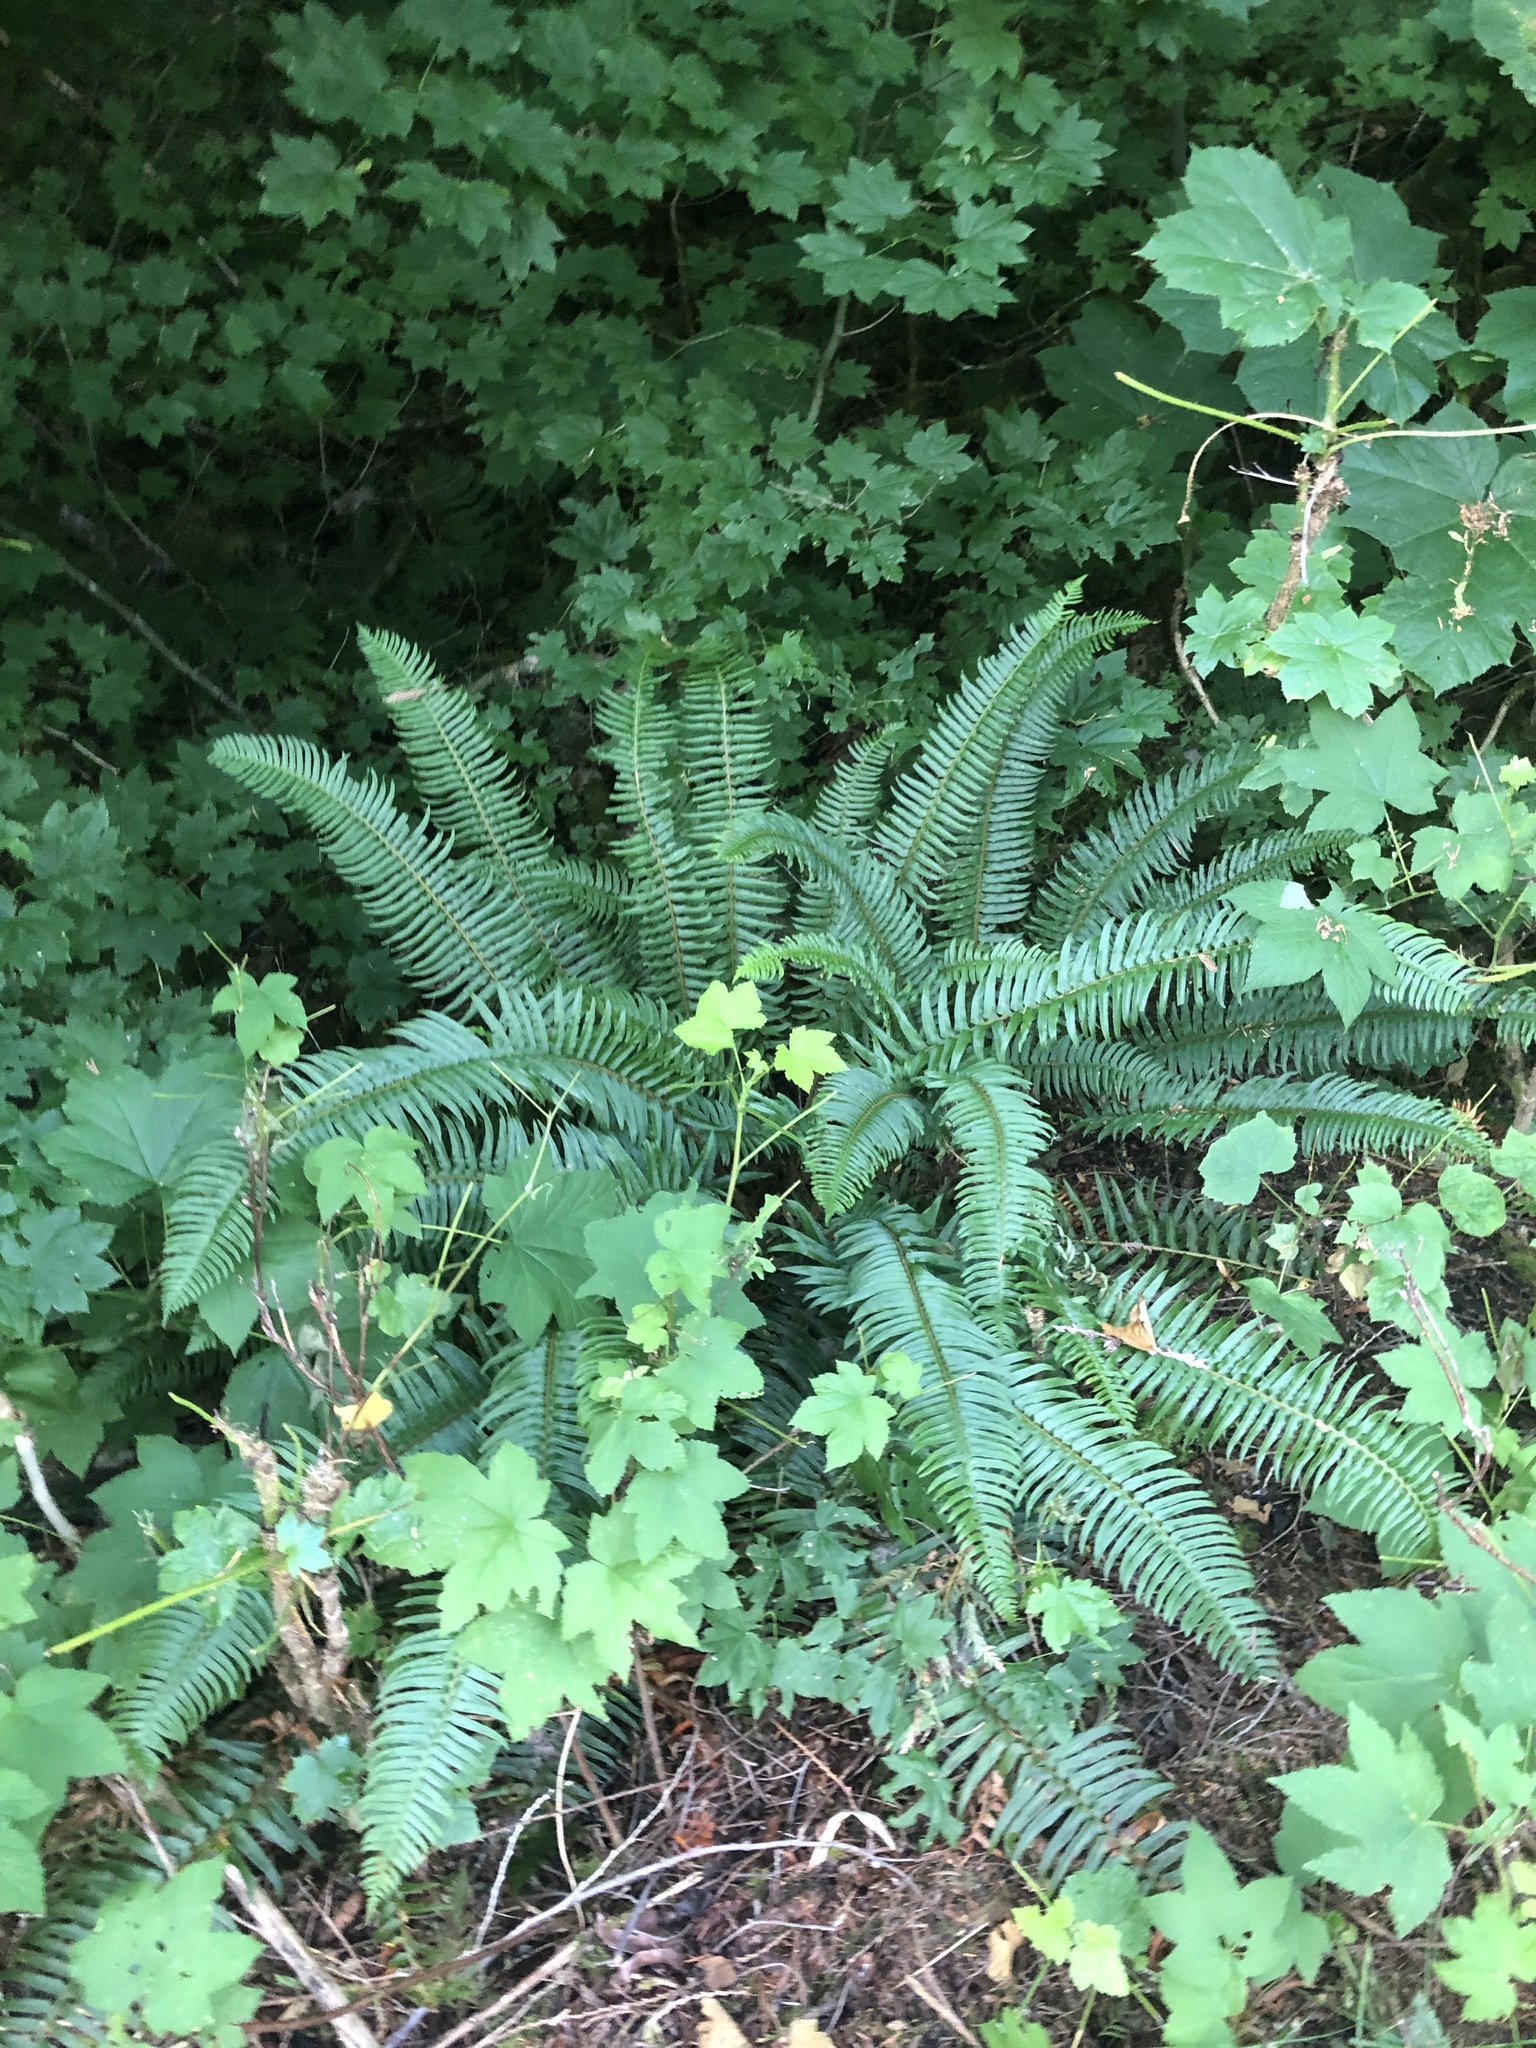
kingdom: Plantae
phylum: Tracheophyta
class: Polypodiopsida
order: Polypodiales
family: Dryopteridaceae
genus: Polystichum
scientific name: Polystichum munitum
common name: Western sword-fern
